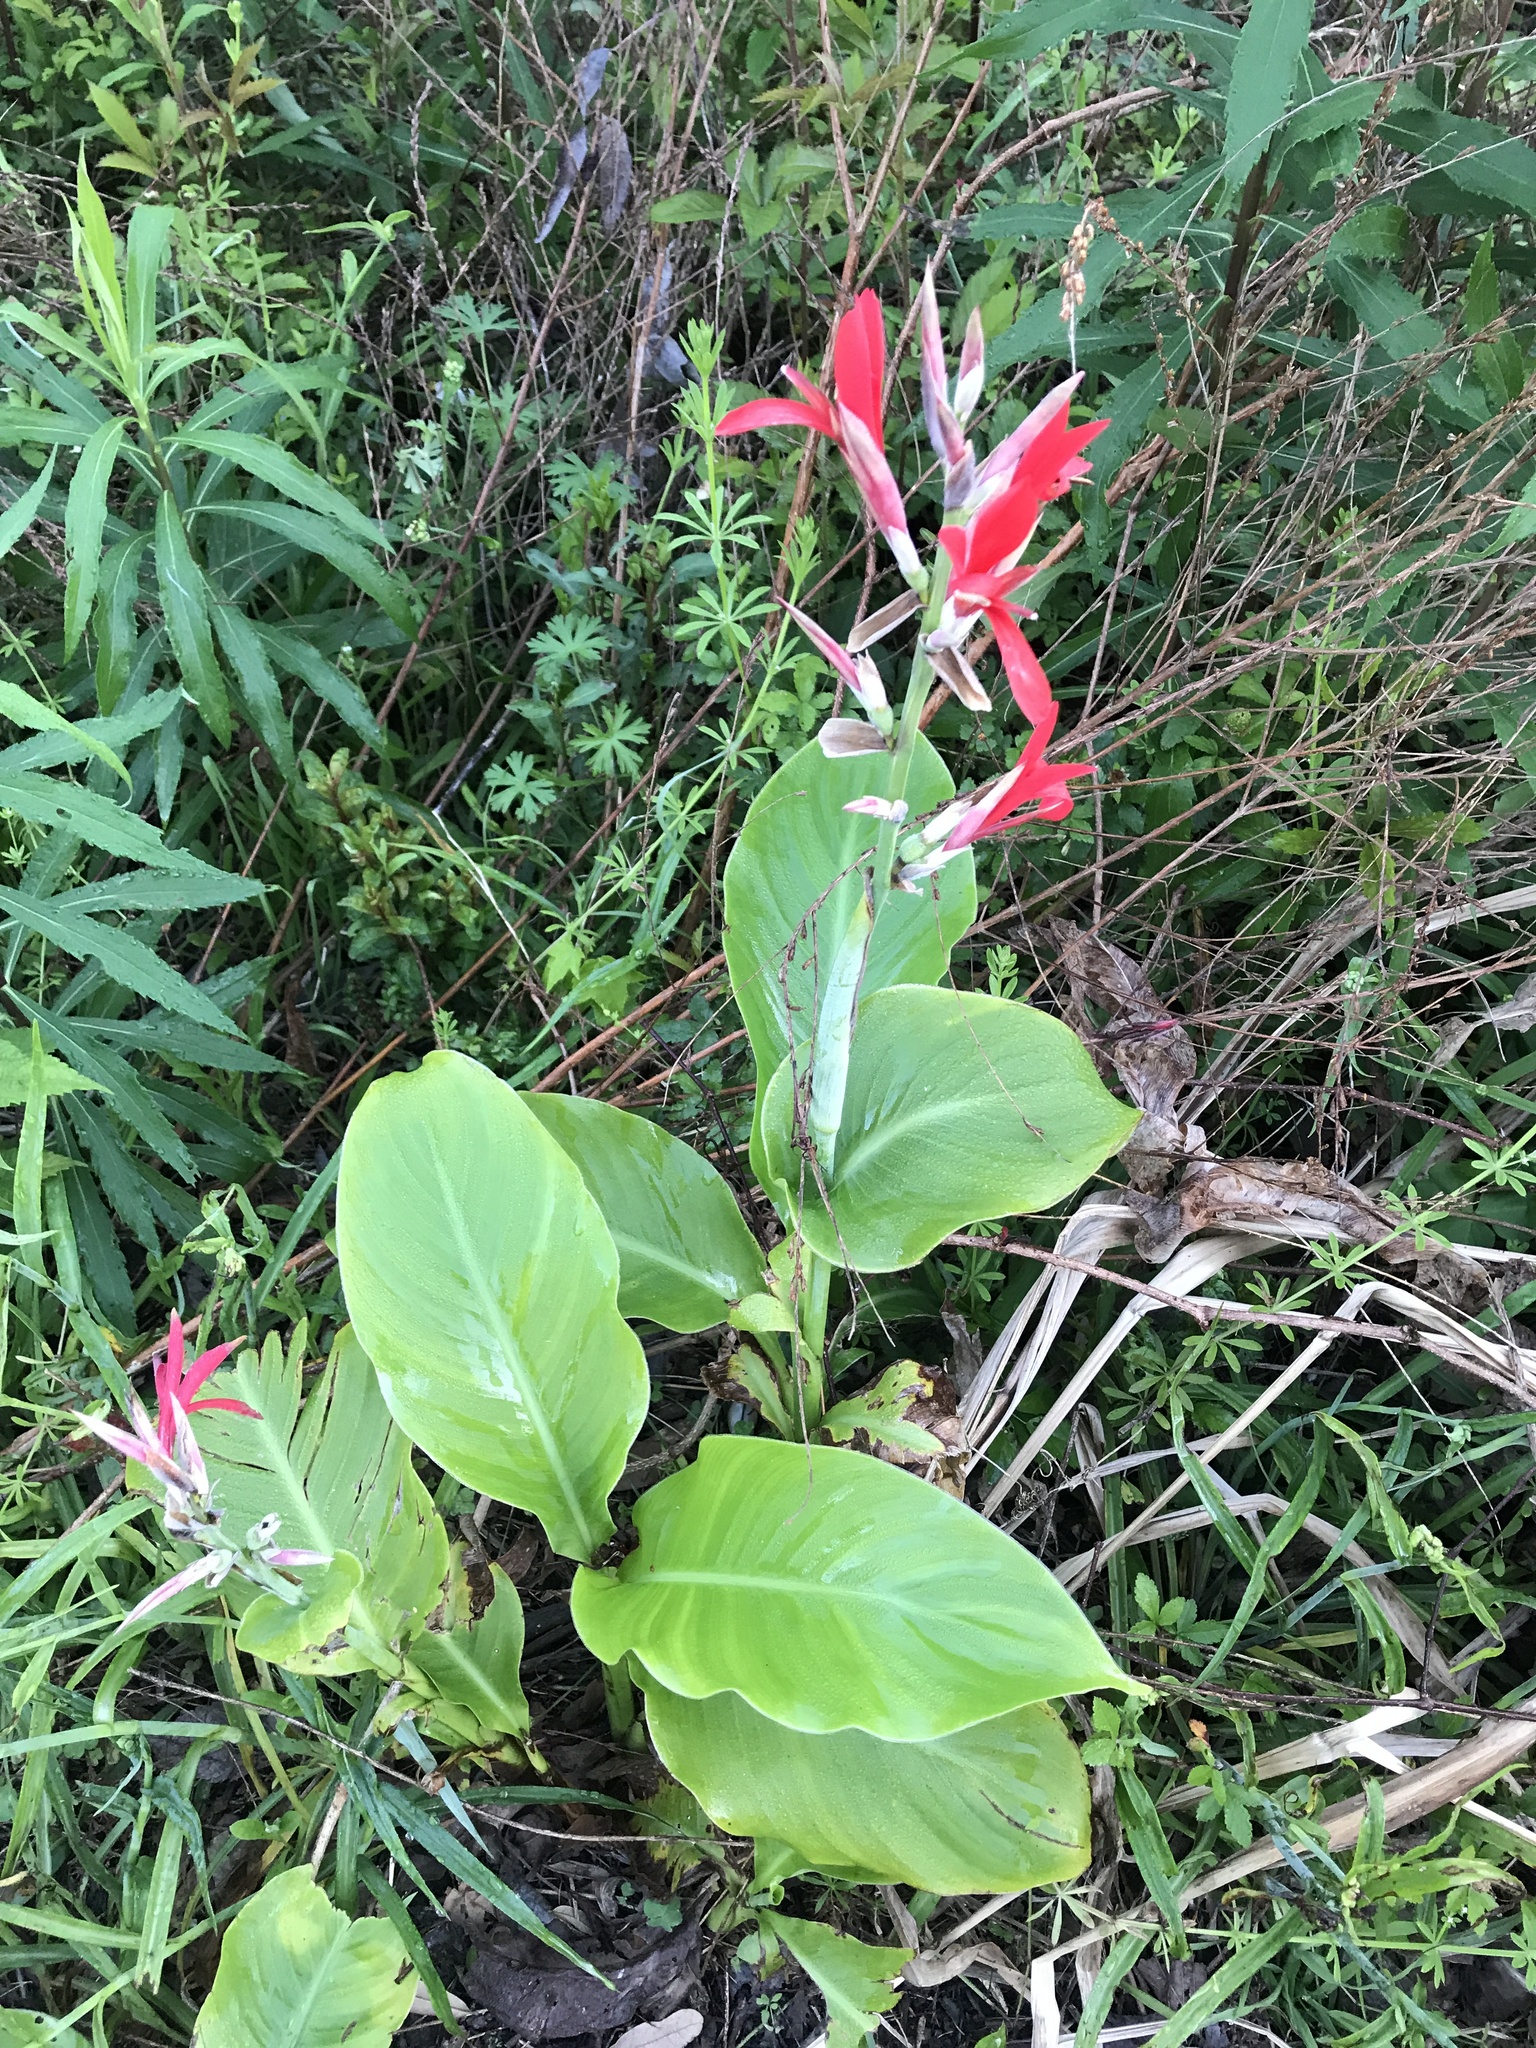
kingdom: Plantae
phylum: Tracheophyta
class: Liliopsida
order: Zingiberales
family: Cannaceae
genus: Canna
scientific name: Canna indica
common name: Indian shot
